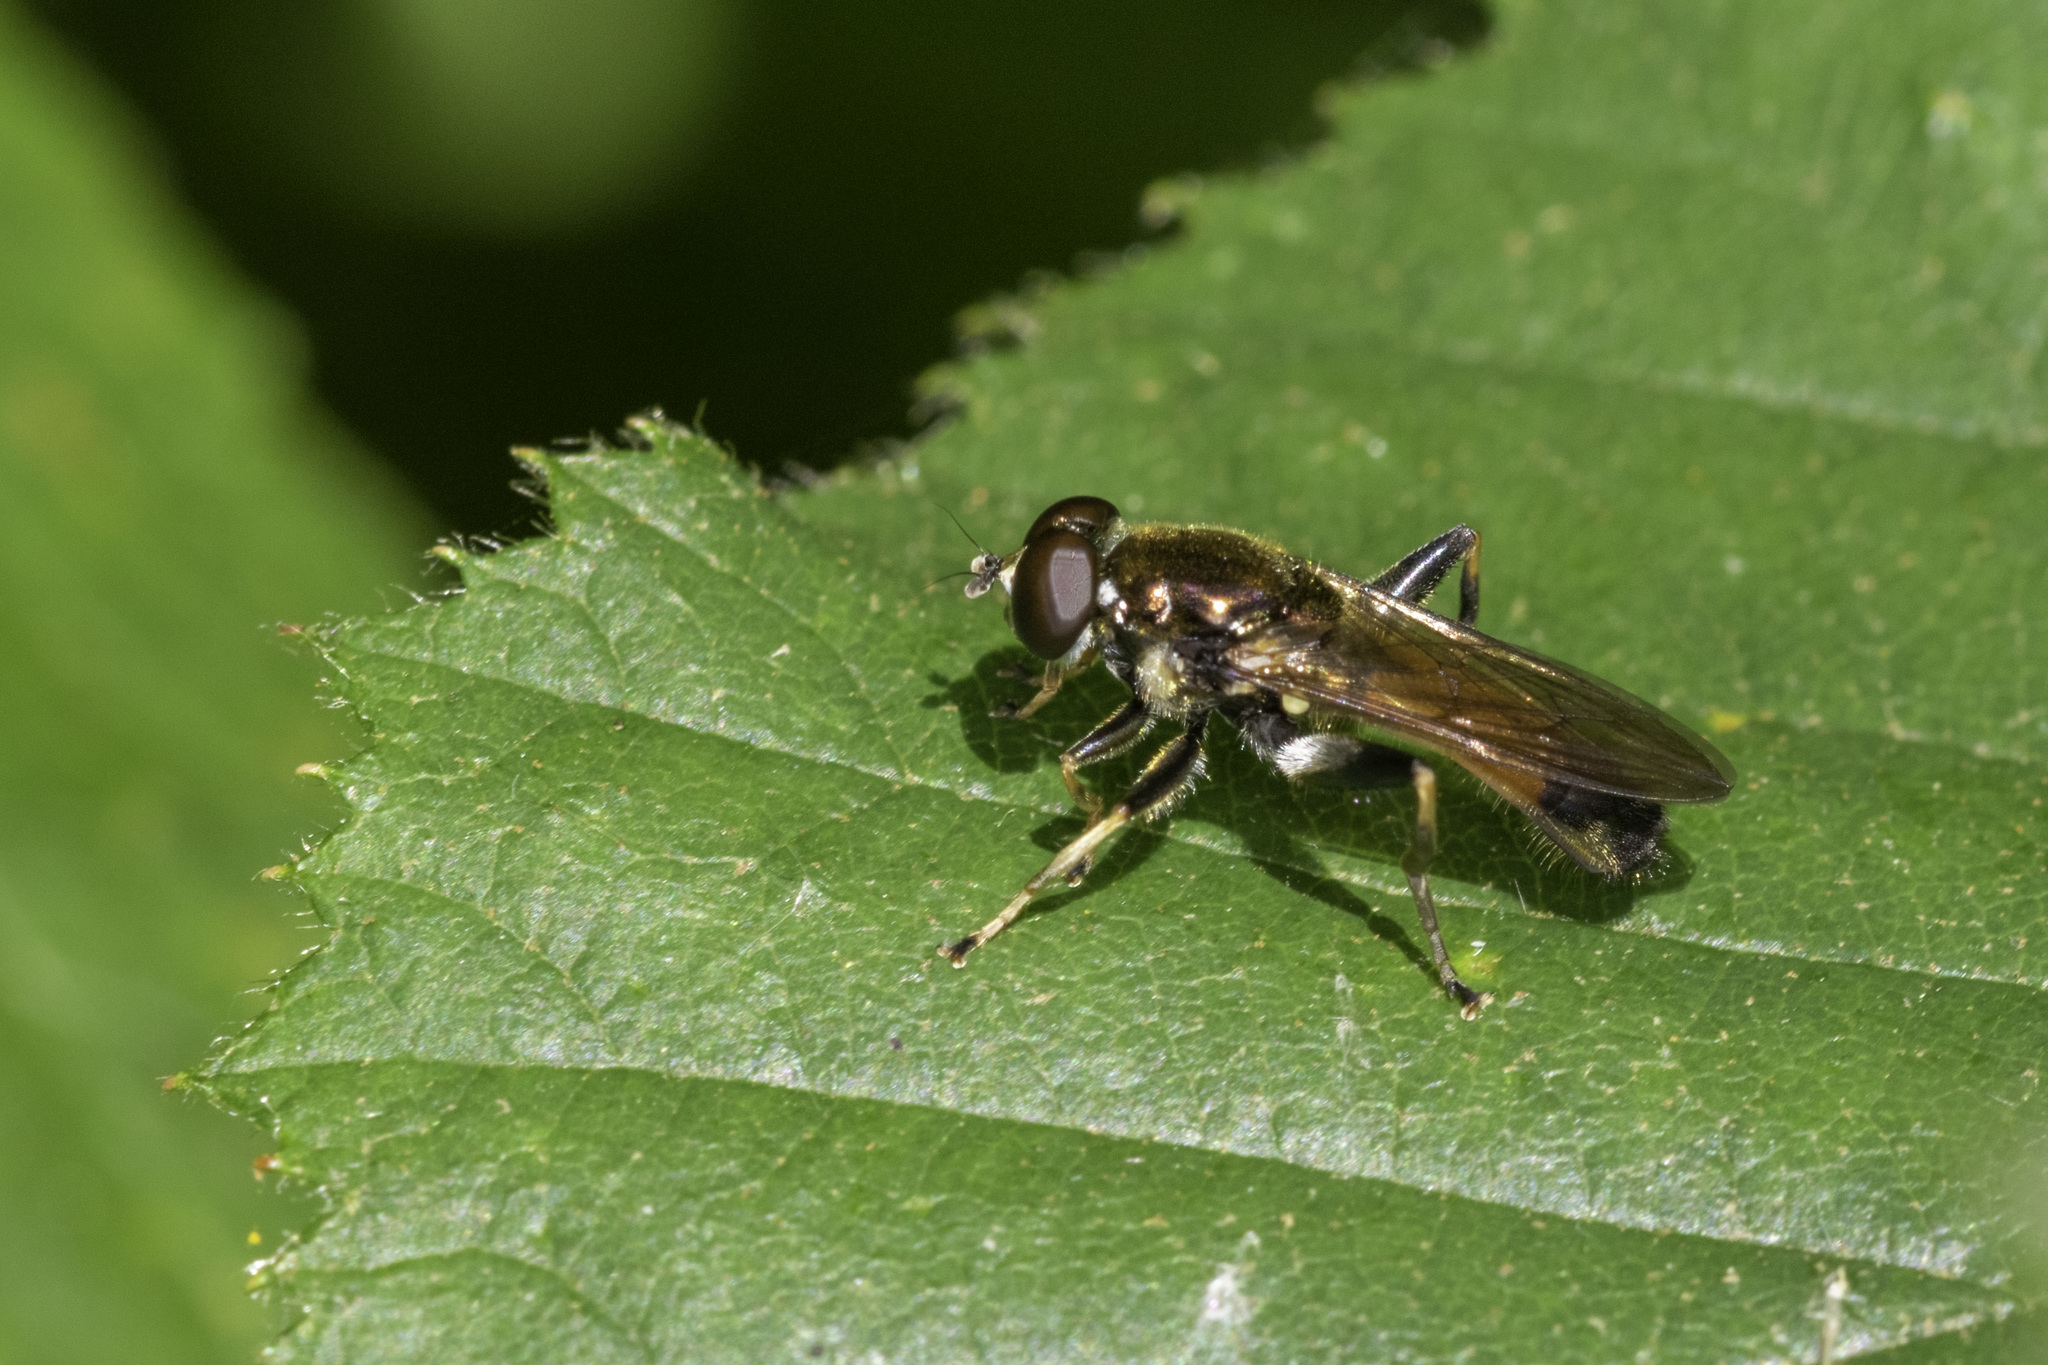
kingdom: Animalia
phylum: Arthropoda
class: Insecta
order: Diptera
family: Syrphidae
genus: Xylota
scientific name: Xylota segnis
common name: Brown-toed forest fly
